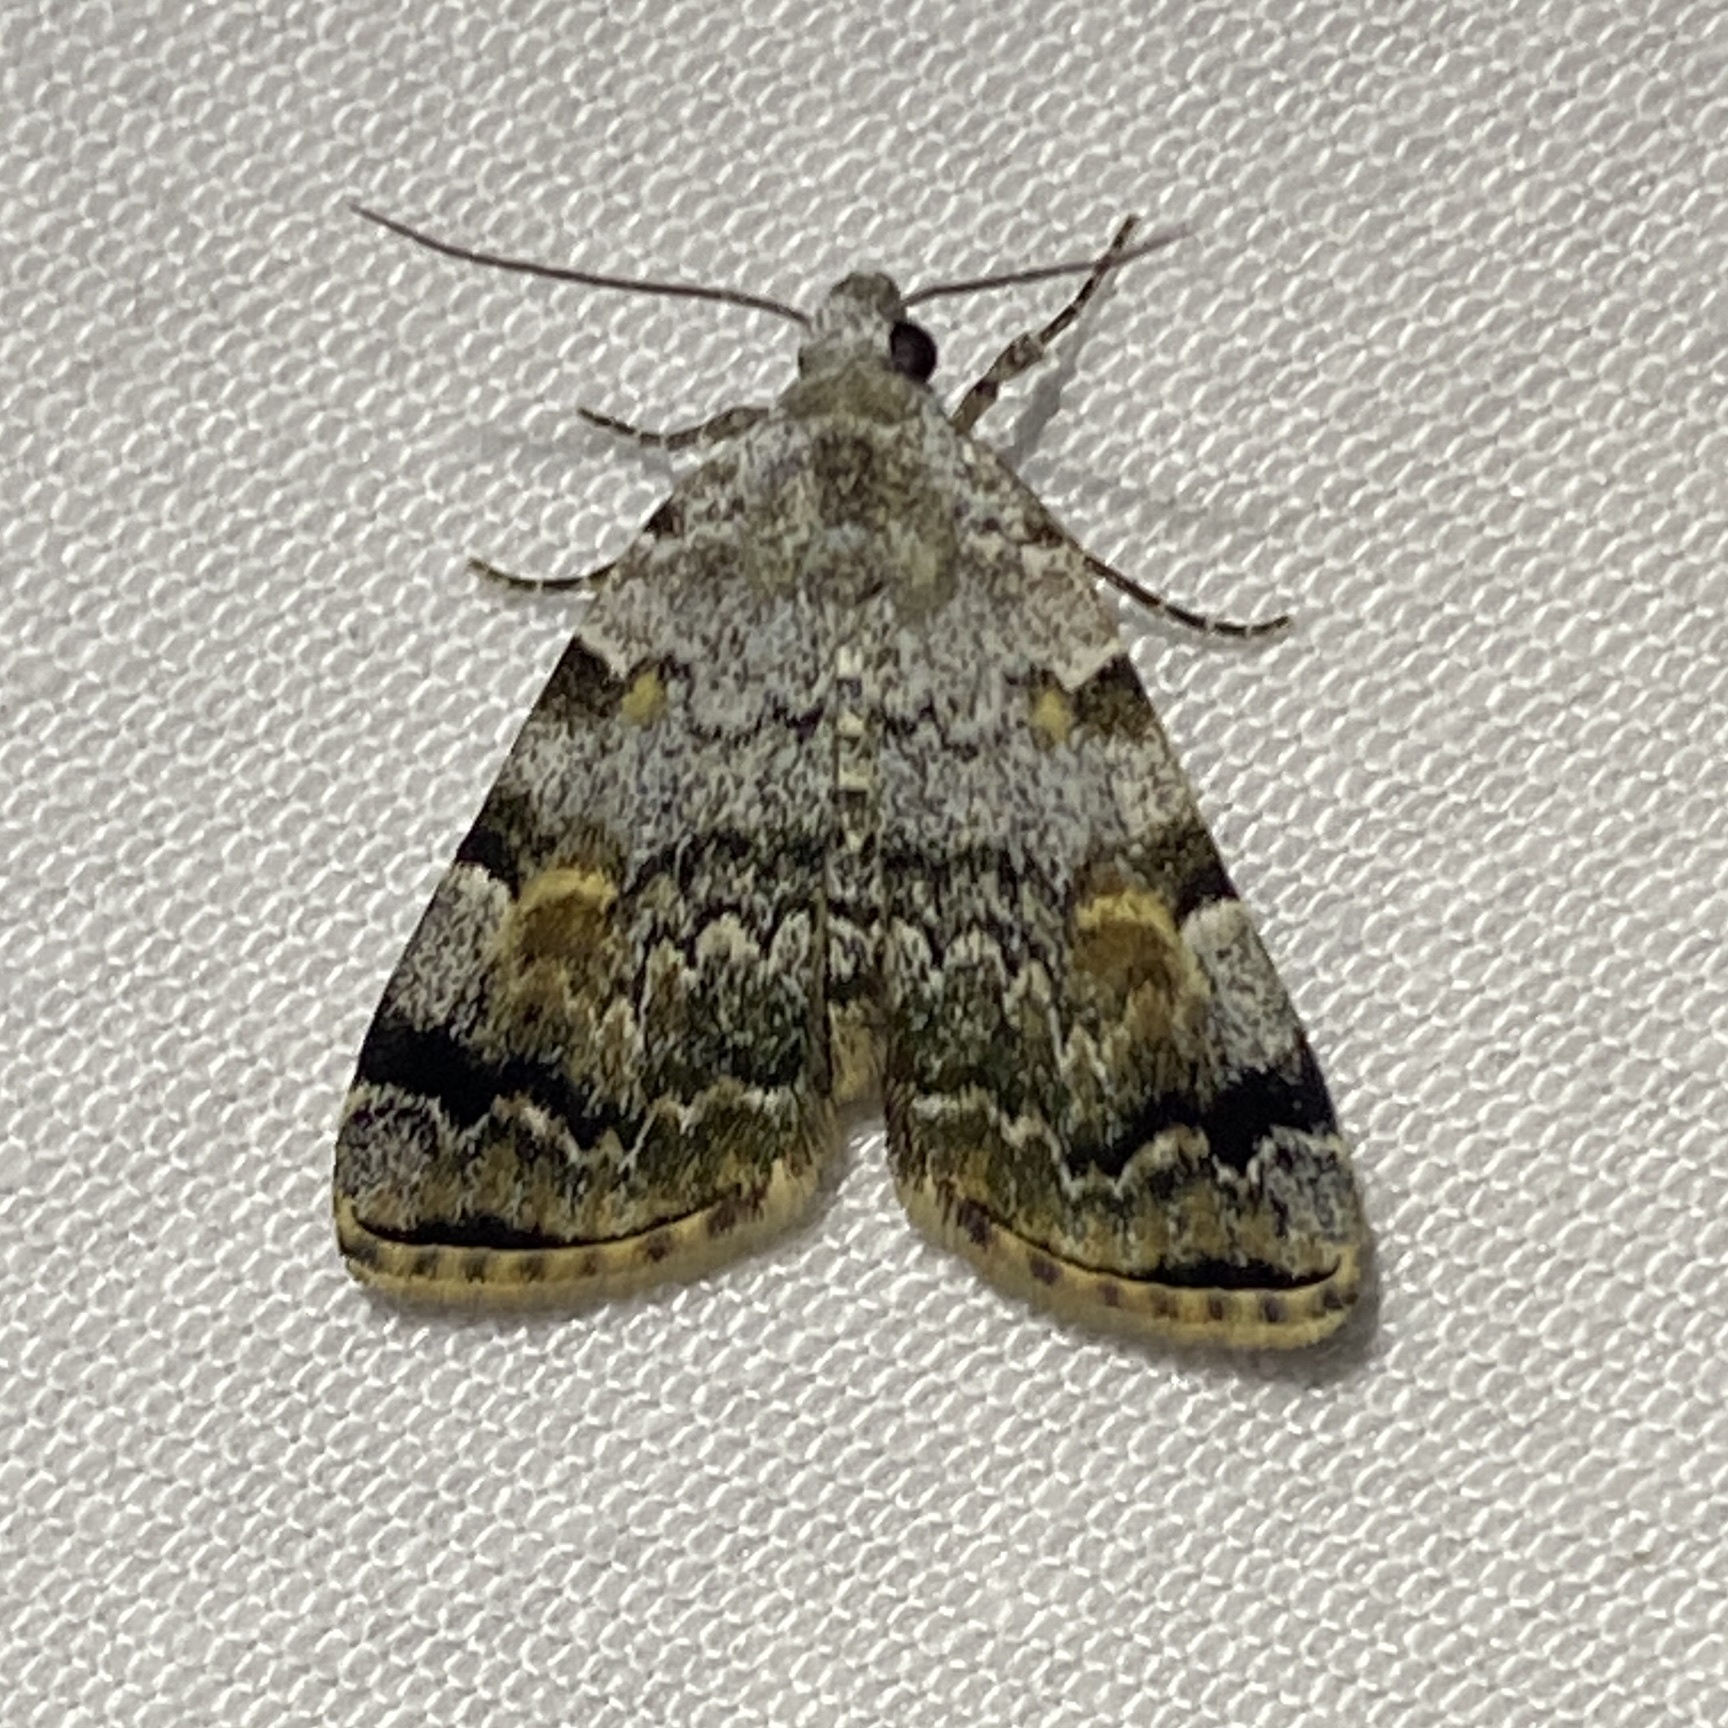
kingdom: Animalia
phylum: Arthropoda
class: Insecta
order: Lepidoptera
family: Erebidae
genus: Idia
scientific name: Idia americalis
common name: American idia moth
